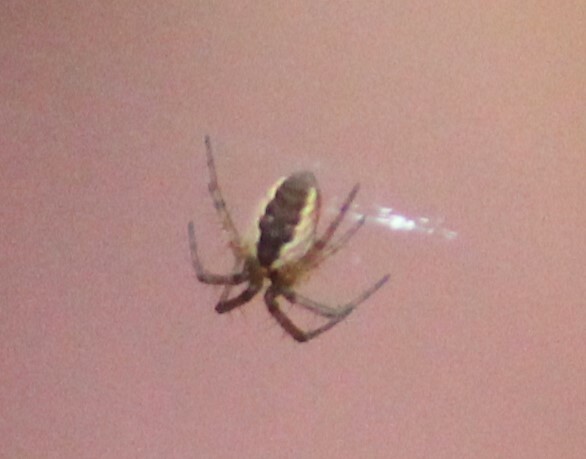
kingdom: Animalia
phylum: Arthropoda
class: Arachnida
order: Araneae
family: Araneidae
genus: Mangora
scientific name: Mangora placida
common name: Tuft-legged orbweaver
